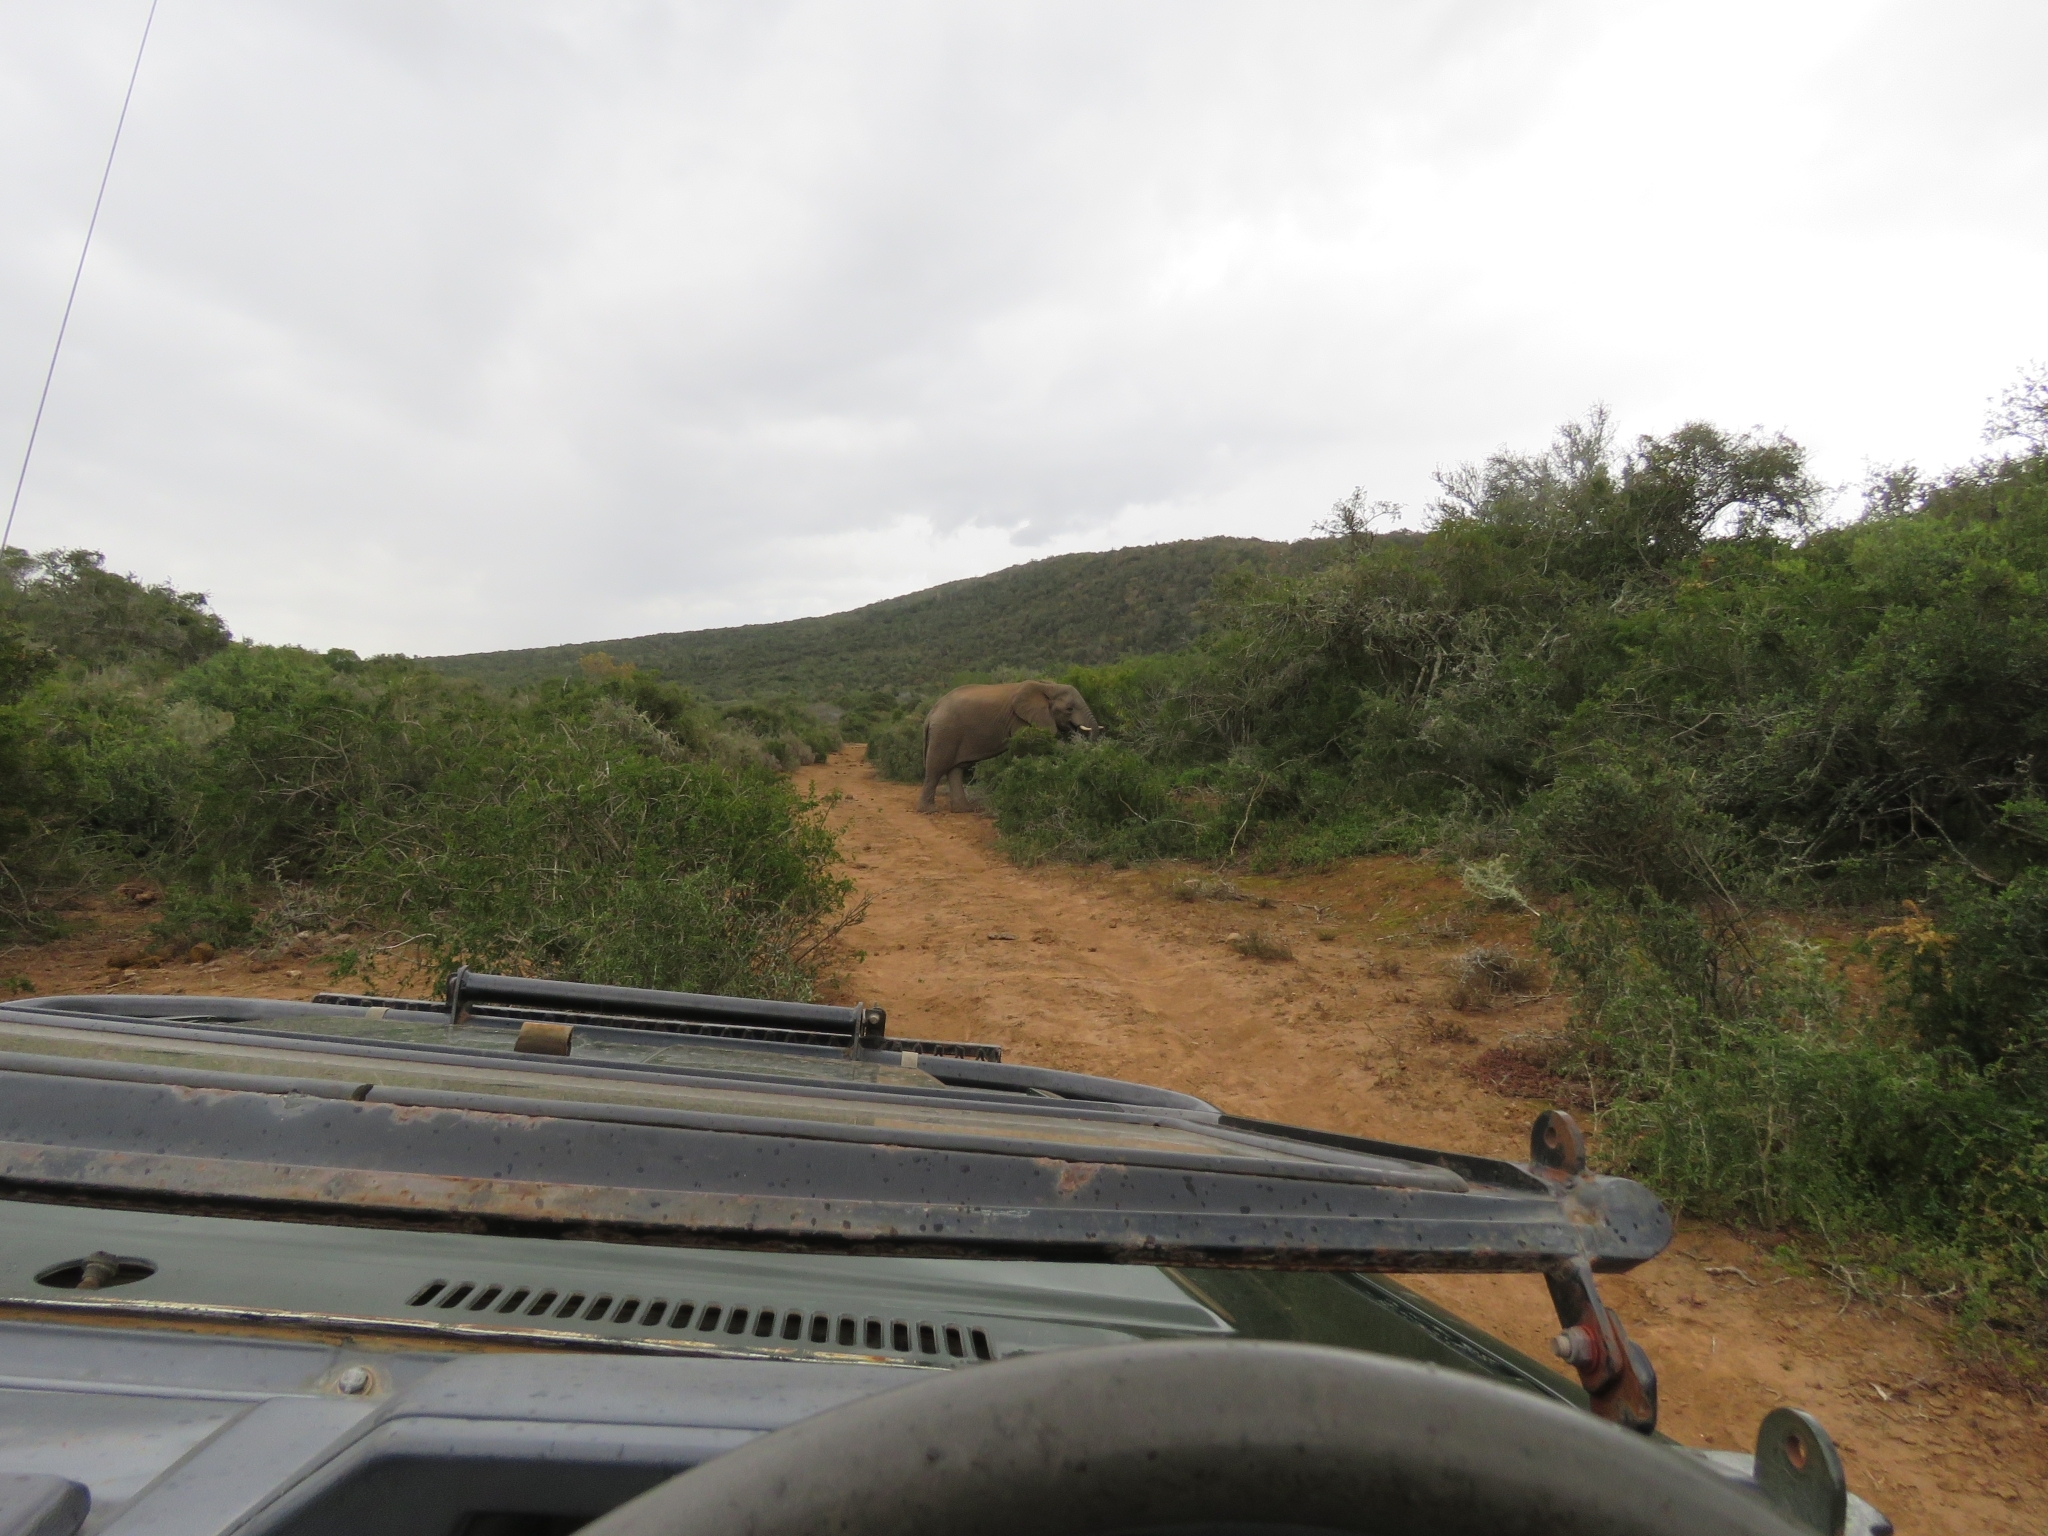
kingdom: Animalia
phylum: Chordata
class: Mammalia
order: Proboscidea
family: Elephantidae
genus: Loxodonta
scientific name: Loxodonta africana
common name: African elephant
